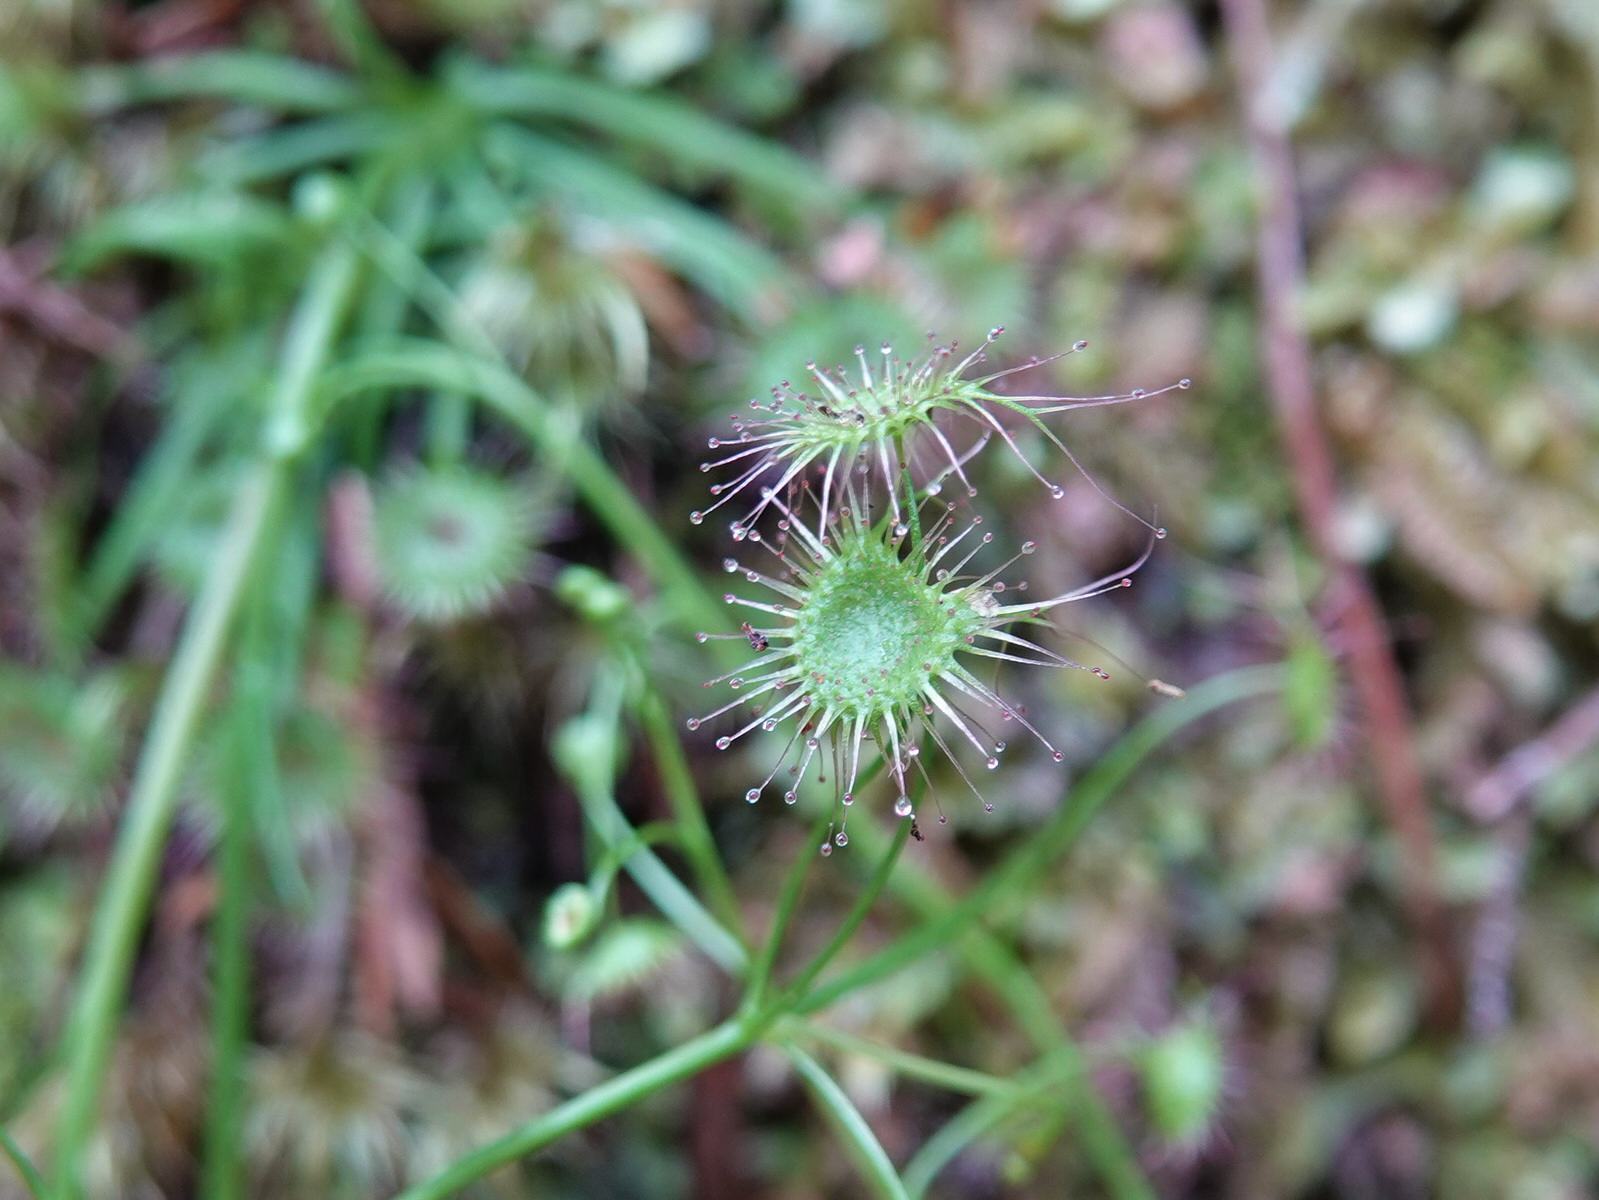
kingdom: Plantae
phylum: Tracheophyta
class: Magnoliopsida
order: Caryophyllales
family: Droseraceae
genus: Drosera
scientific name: Drosera peltata
